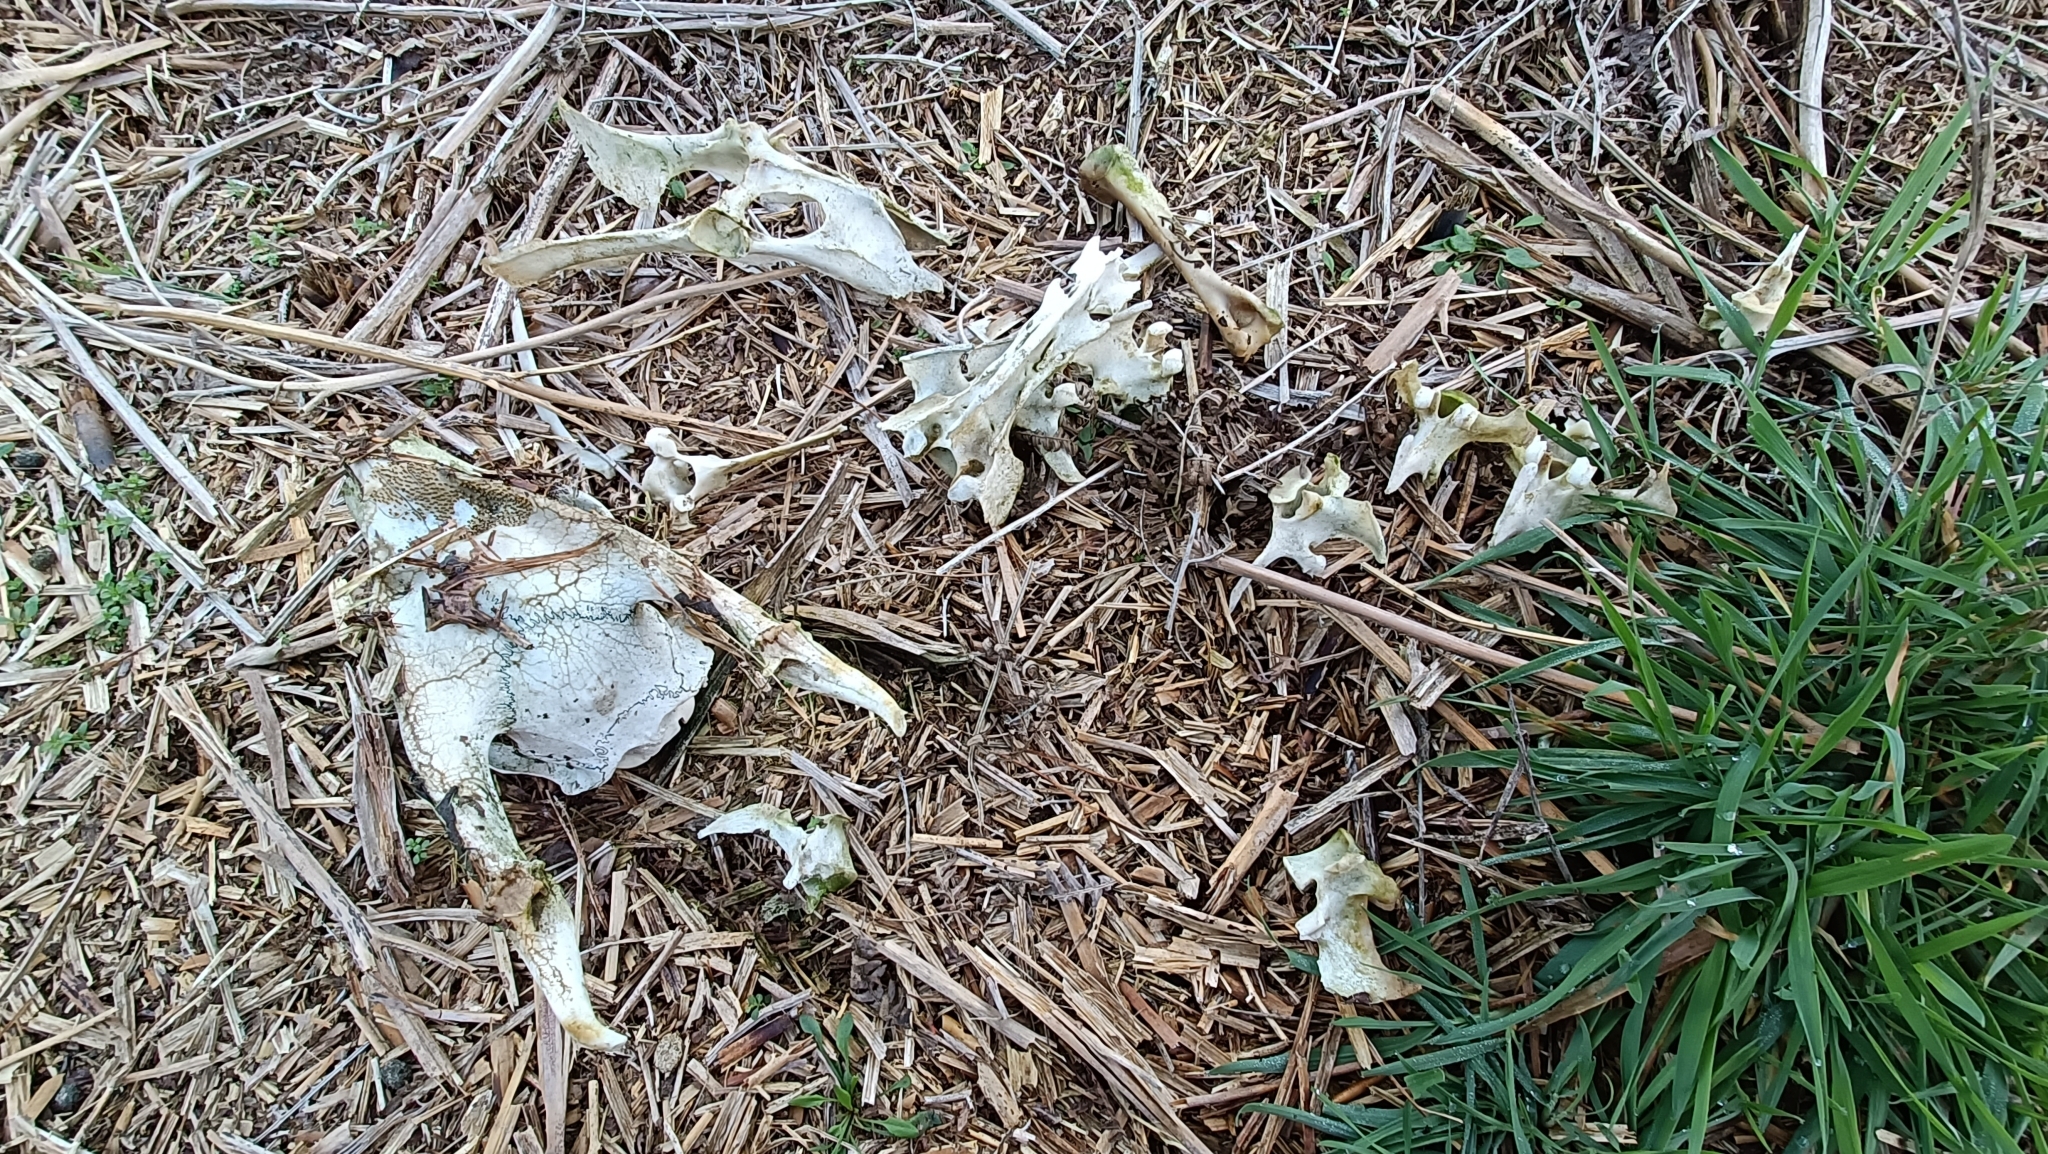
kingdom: Animalia
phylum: Chordata
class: Mammalia
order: Artiodactyla
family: Cervidae
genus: Muntiacus
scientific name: Muntiacus reevesi
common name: Reeves' muntjac
